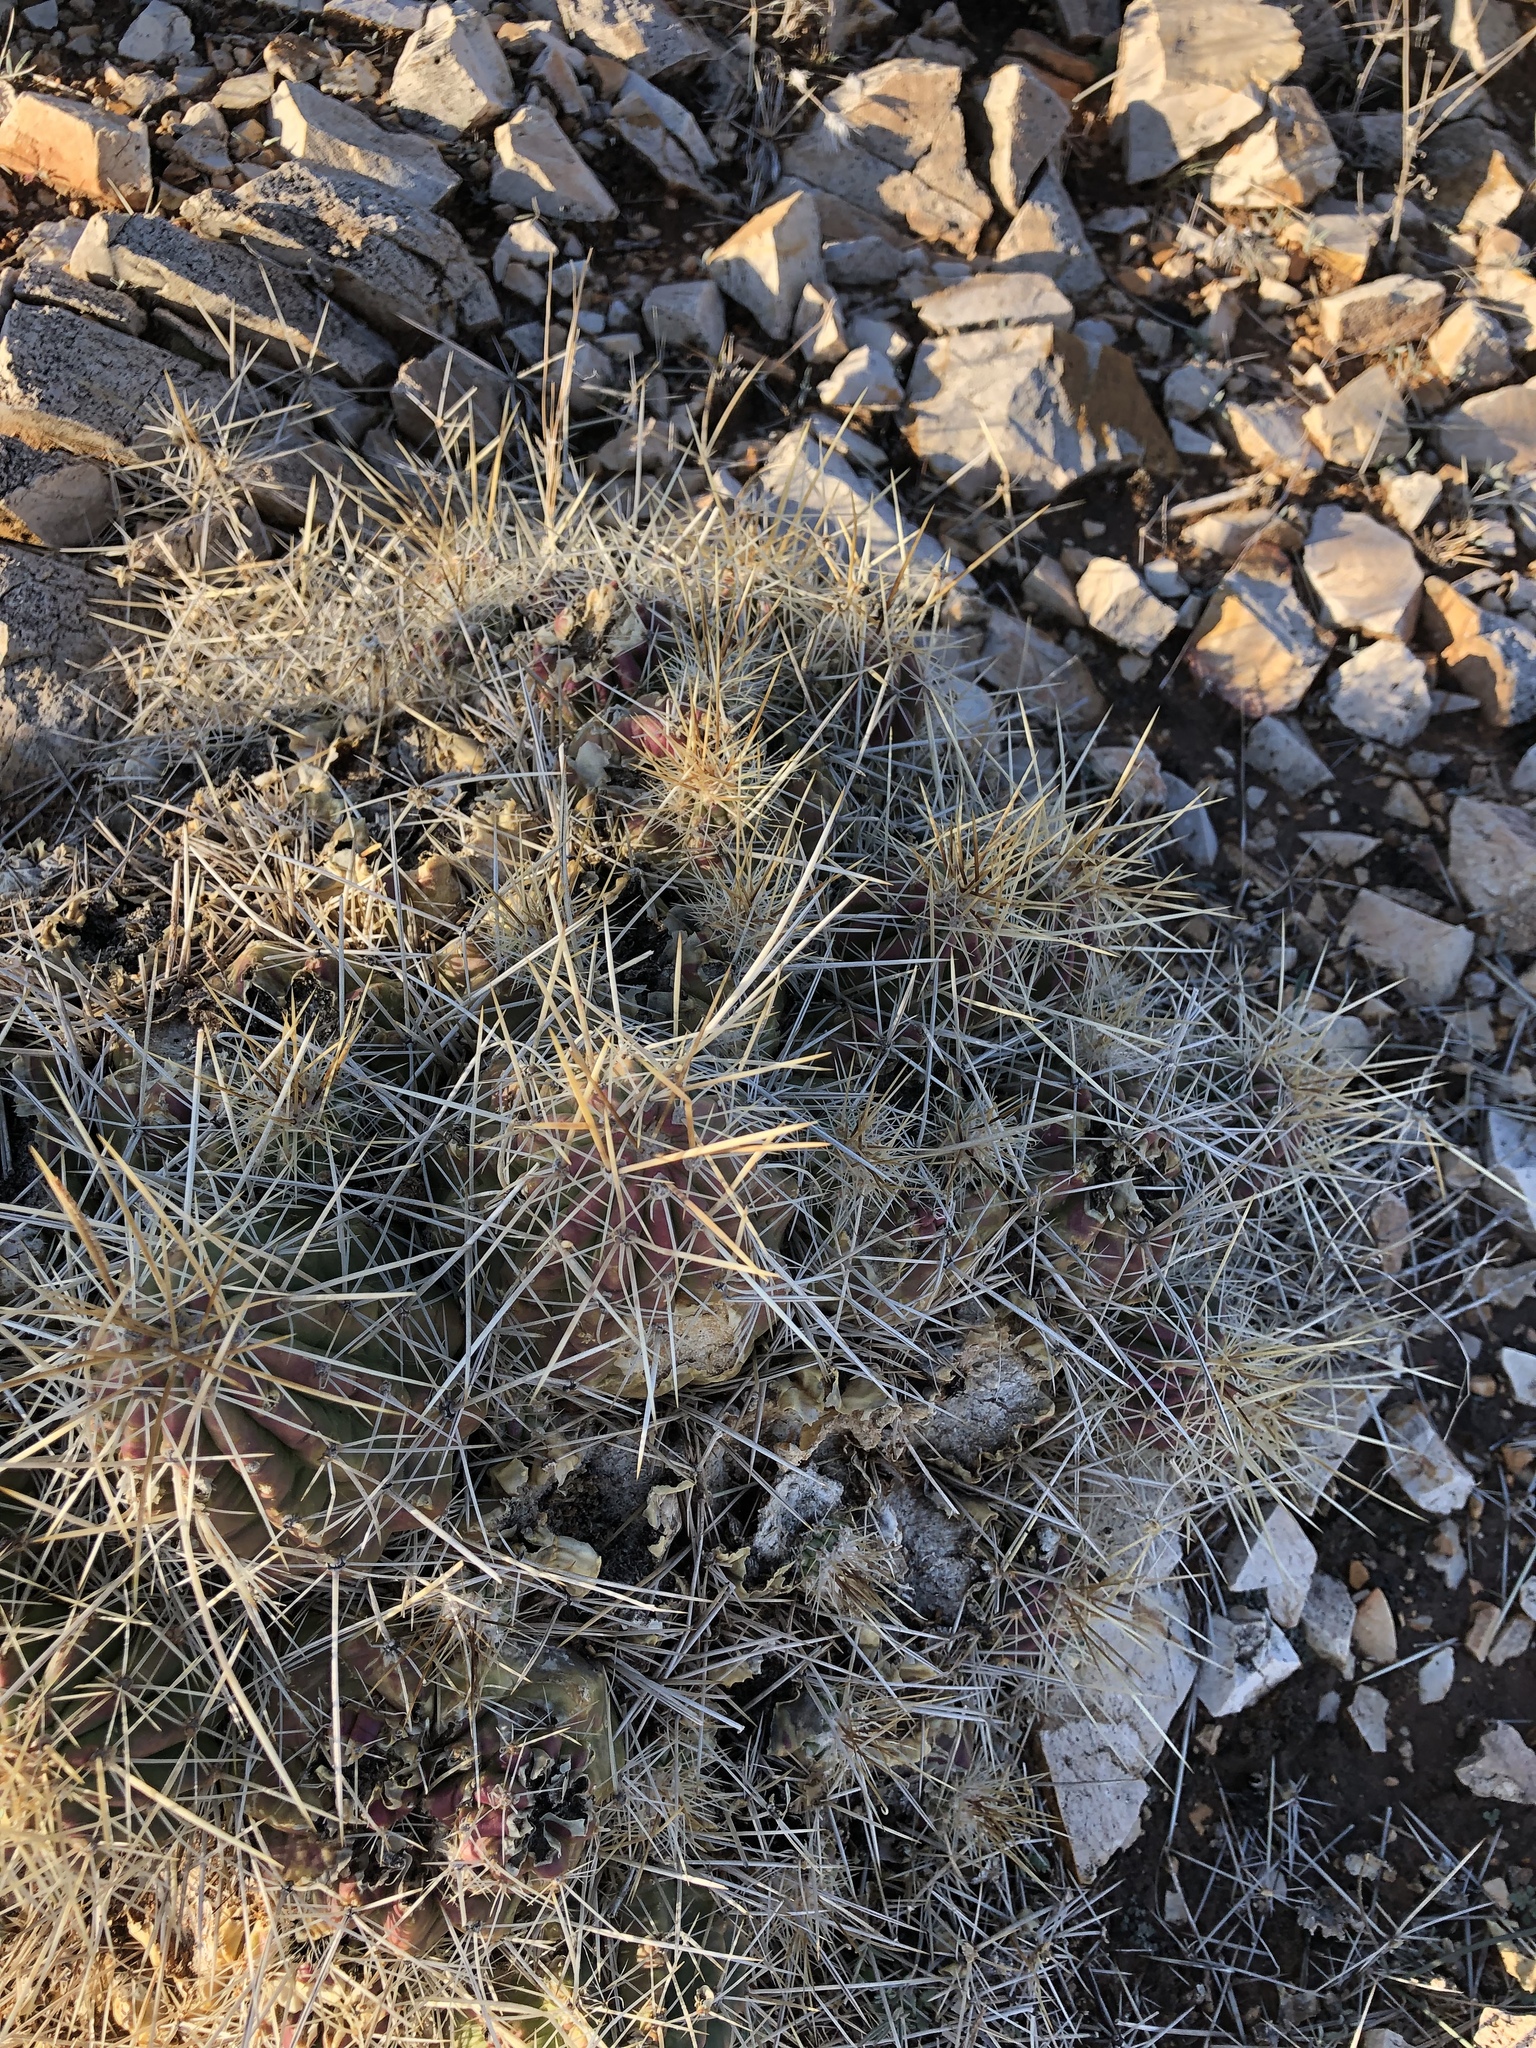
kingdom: Plantae
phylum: Tracheophyta
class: Magnoliopsida
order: Caryophyllales
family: Cactaceae
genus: Echinocereus
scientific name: Echinocereus stramineus
